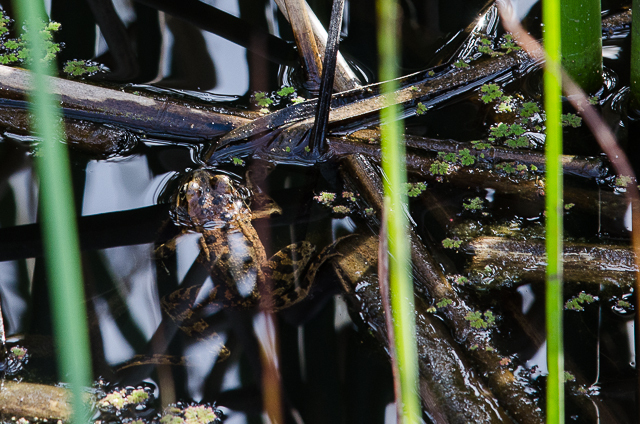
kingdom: Animalia
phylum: Chordata
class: Amphibia
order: Anura
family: Ranidae
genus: Rana
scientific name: Rana draytonii
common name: California red-legged frog
